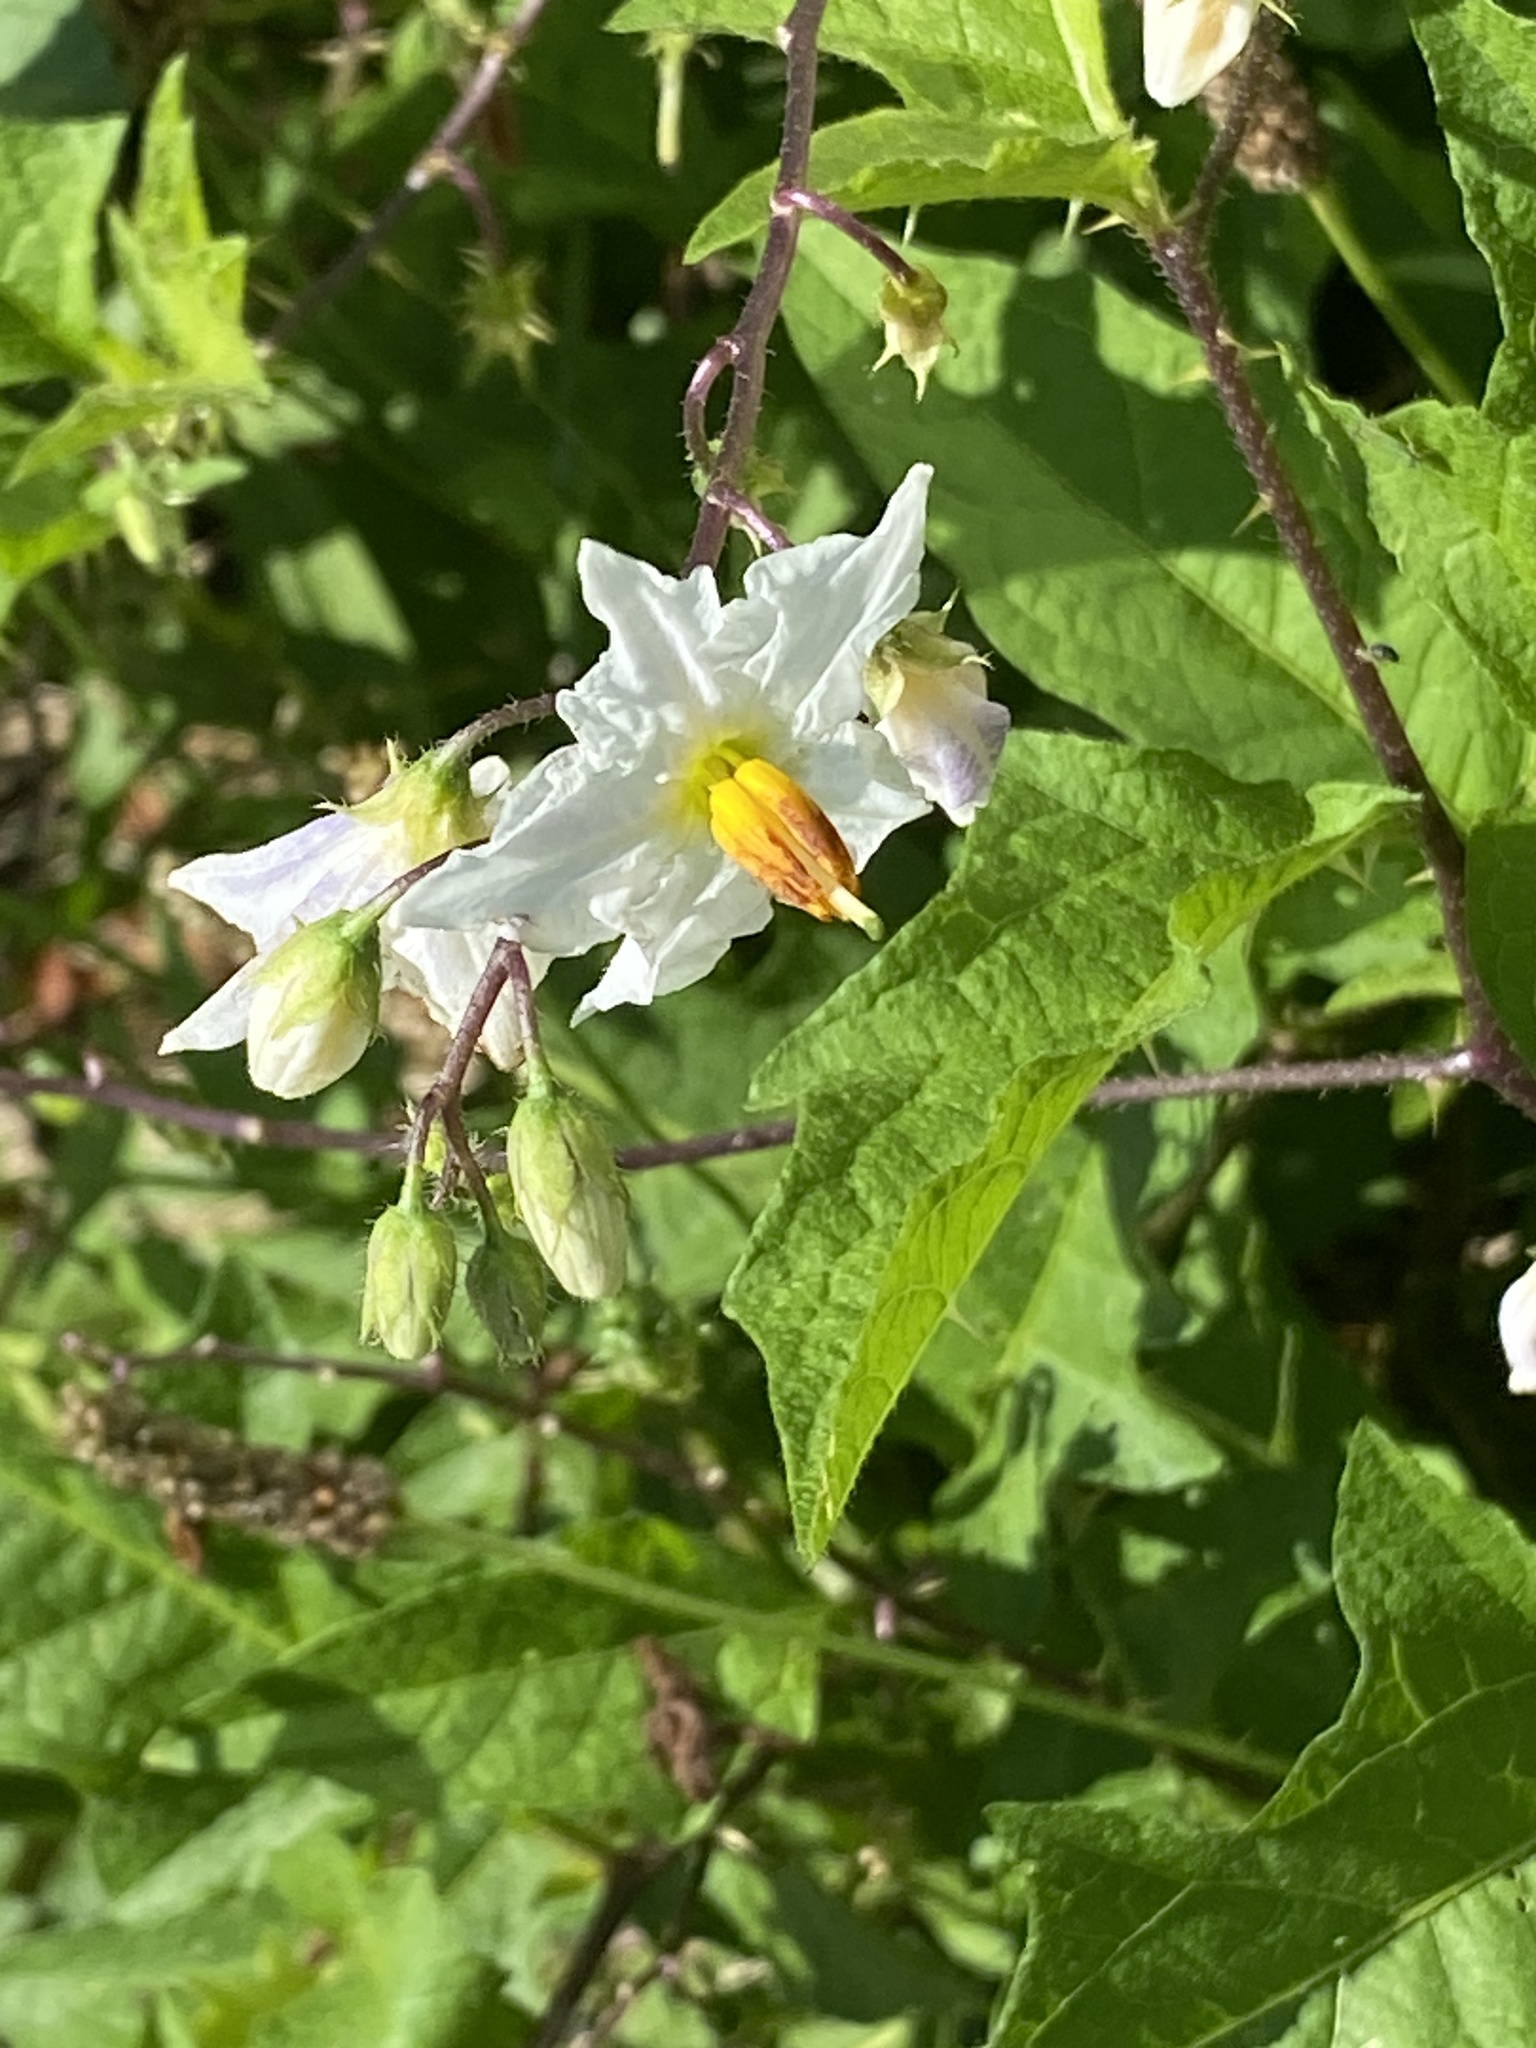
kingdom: Plantae
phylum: Tracheophyta
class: Magnoliopsida
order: Solanales
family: Solanaceae
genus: Solanum
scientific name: Solanum carolinense
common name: Horse-nettle
